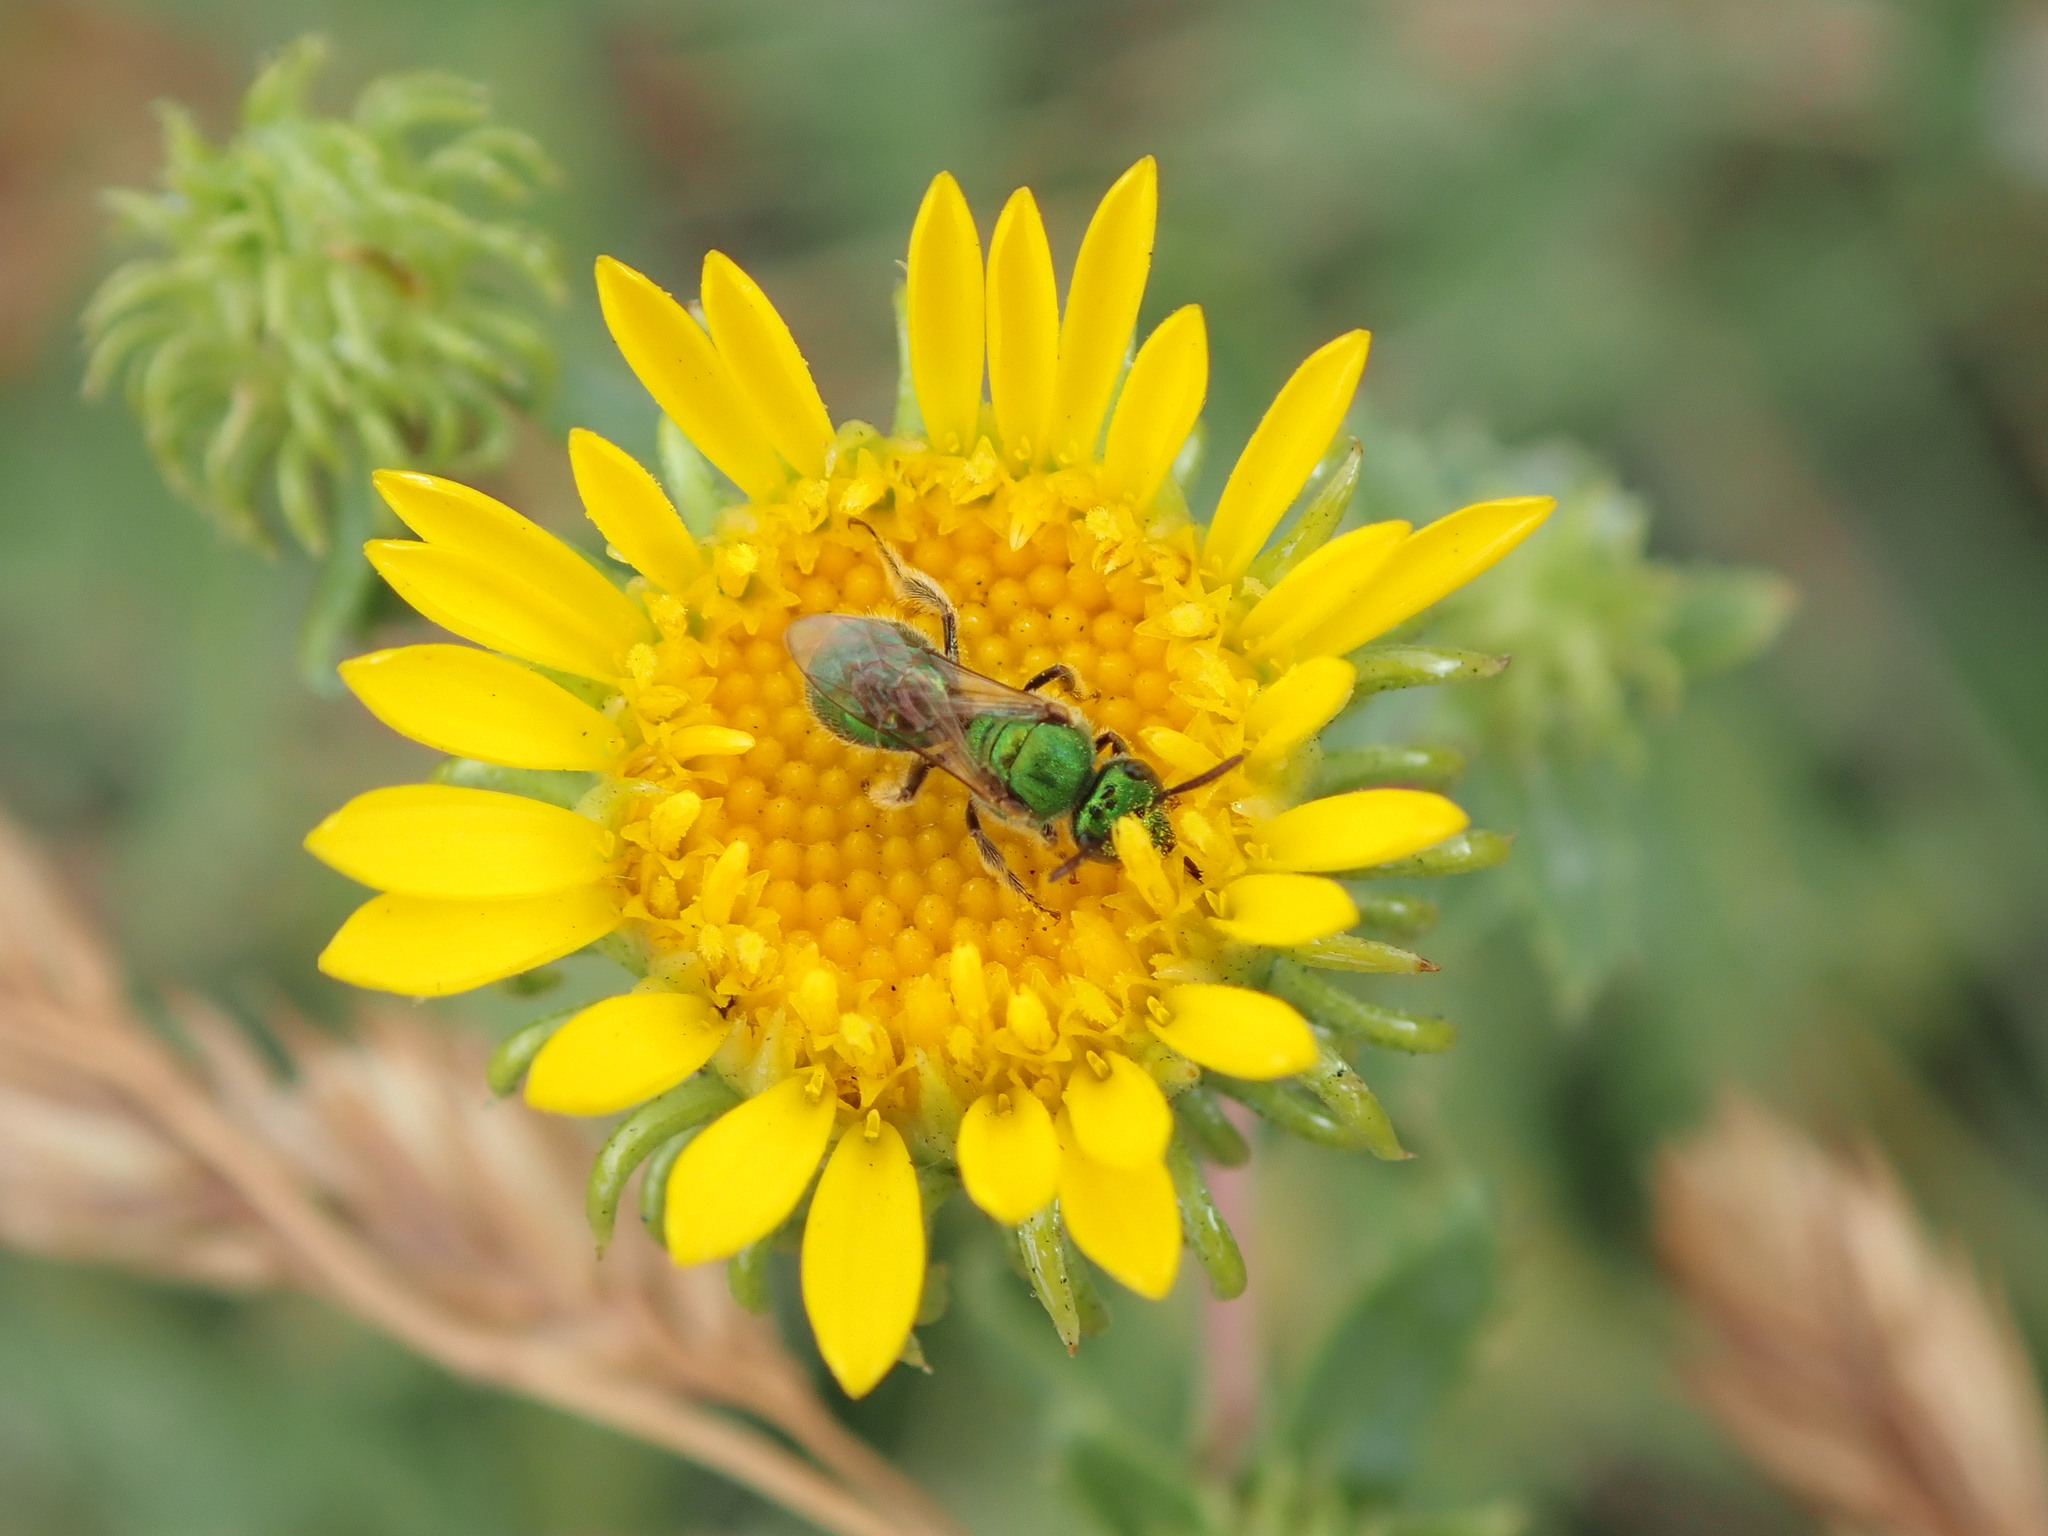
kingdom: Animalia
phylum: Arthropoda
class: Insecta
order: Hymenoptera
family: Halictidae
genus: Augochlorella
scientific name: Augochlorella aurata
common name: Golden sweat bee
